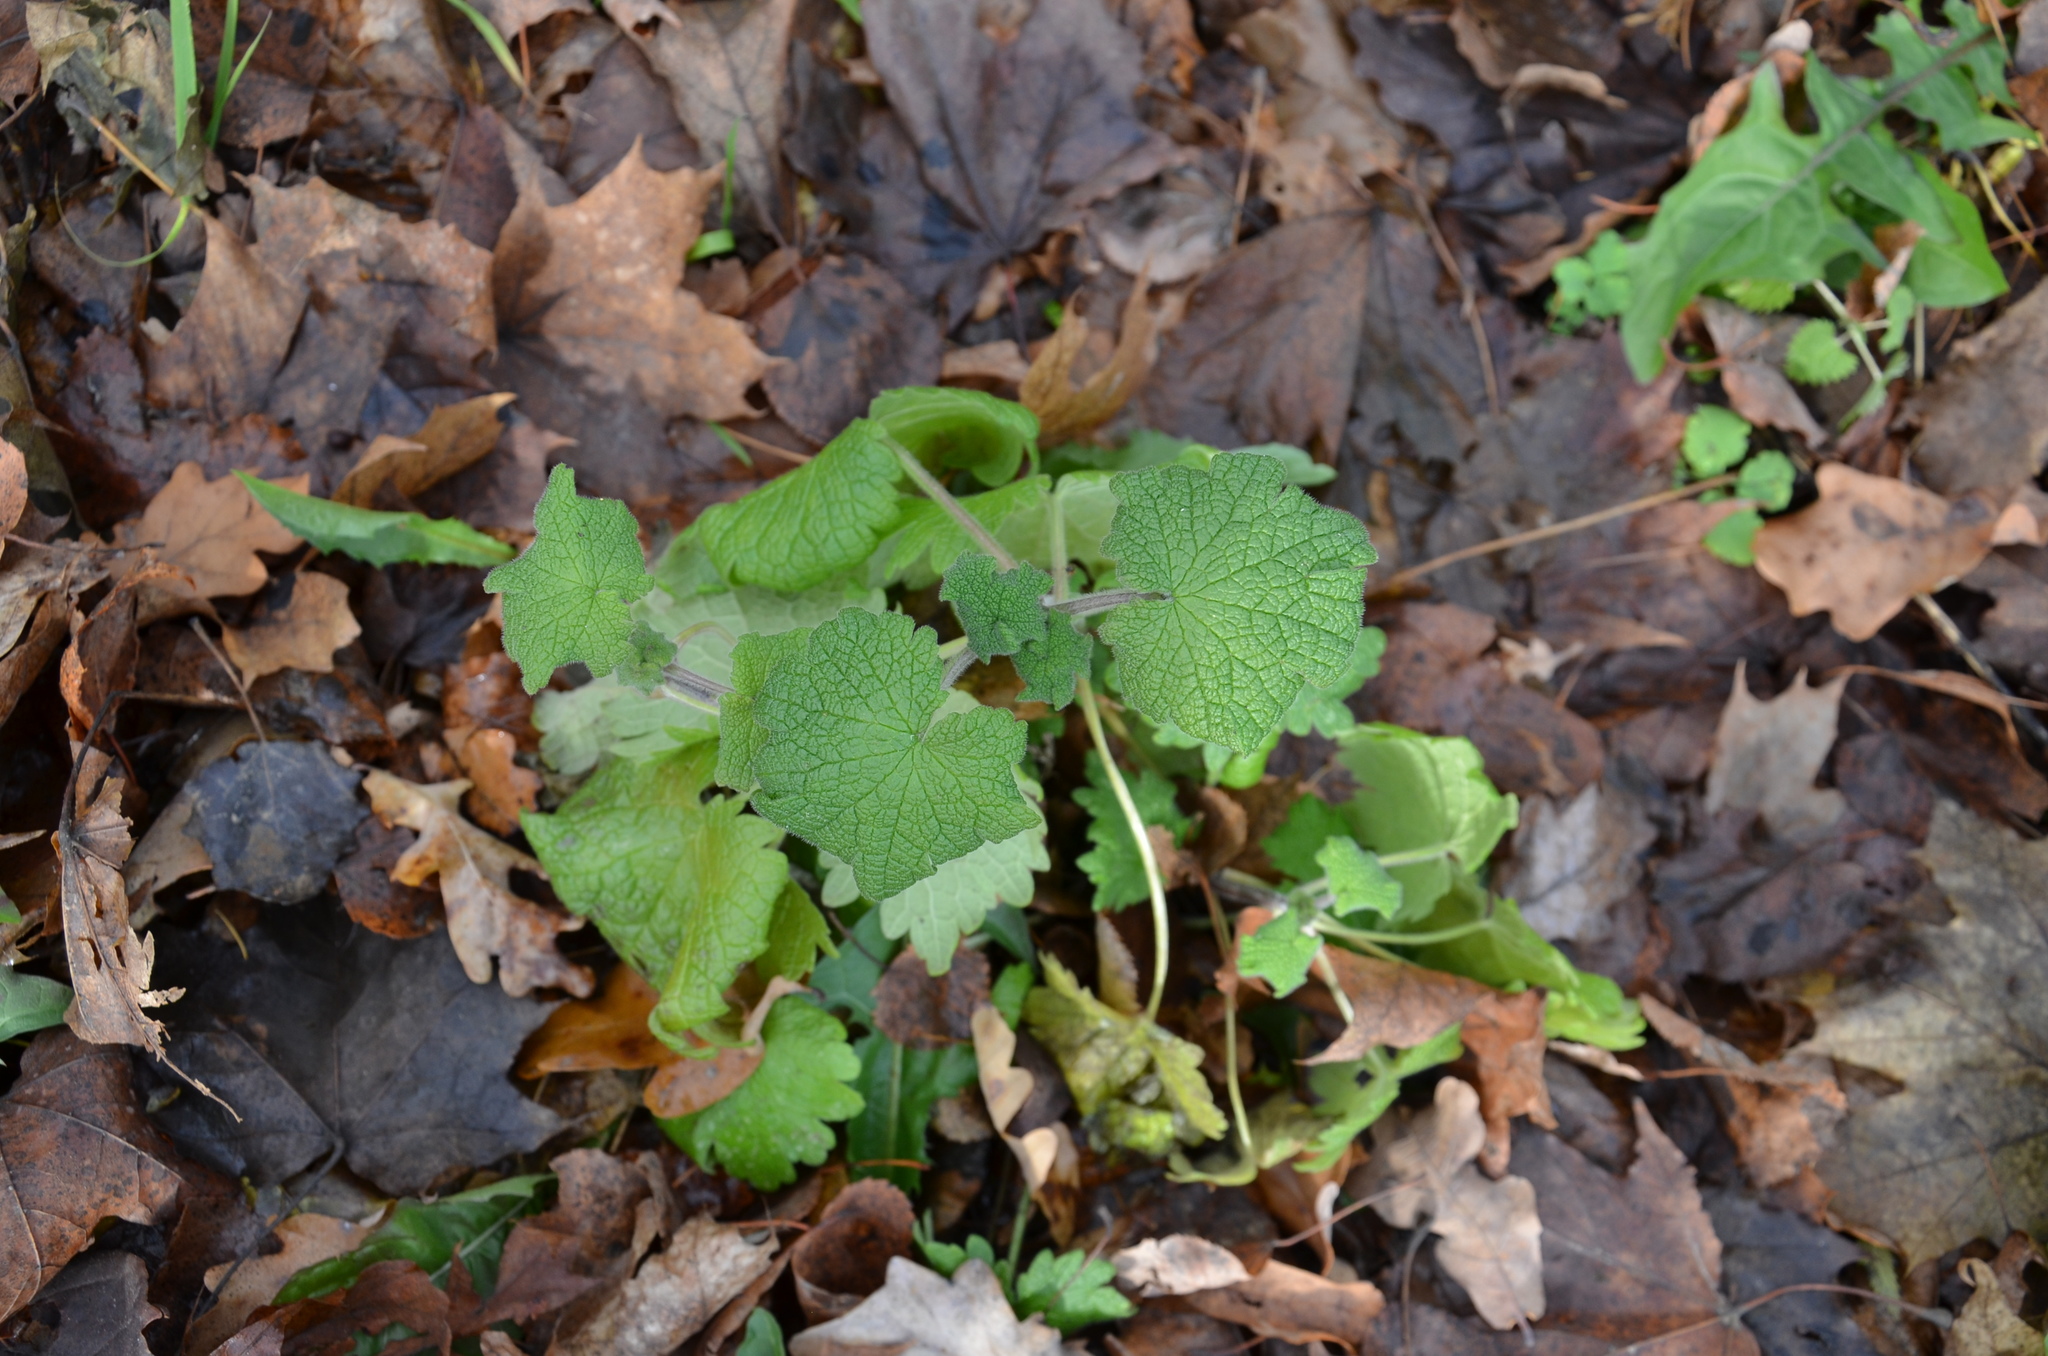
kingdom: Plantae
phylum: Tracheophyta
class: Magnoliopsida
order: Lamiales
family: Lamiaceae
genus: Leonurus
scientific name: Leonurus quinquelobatus
